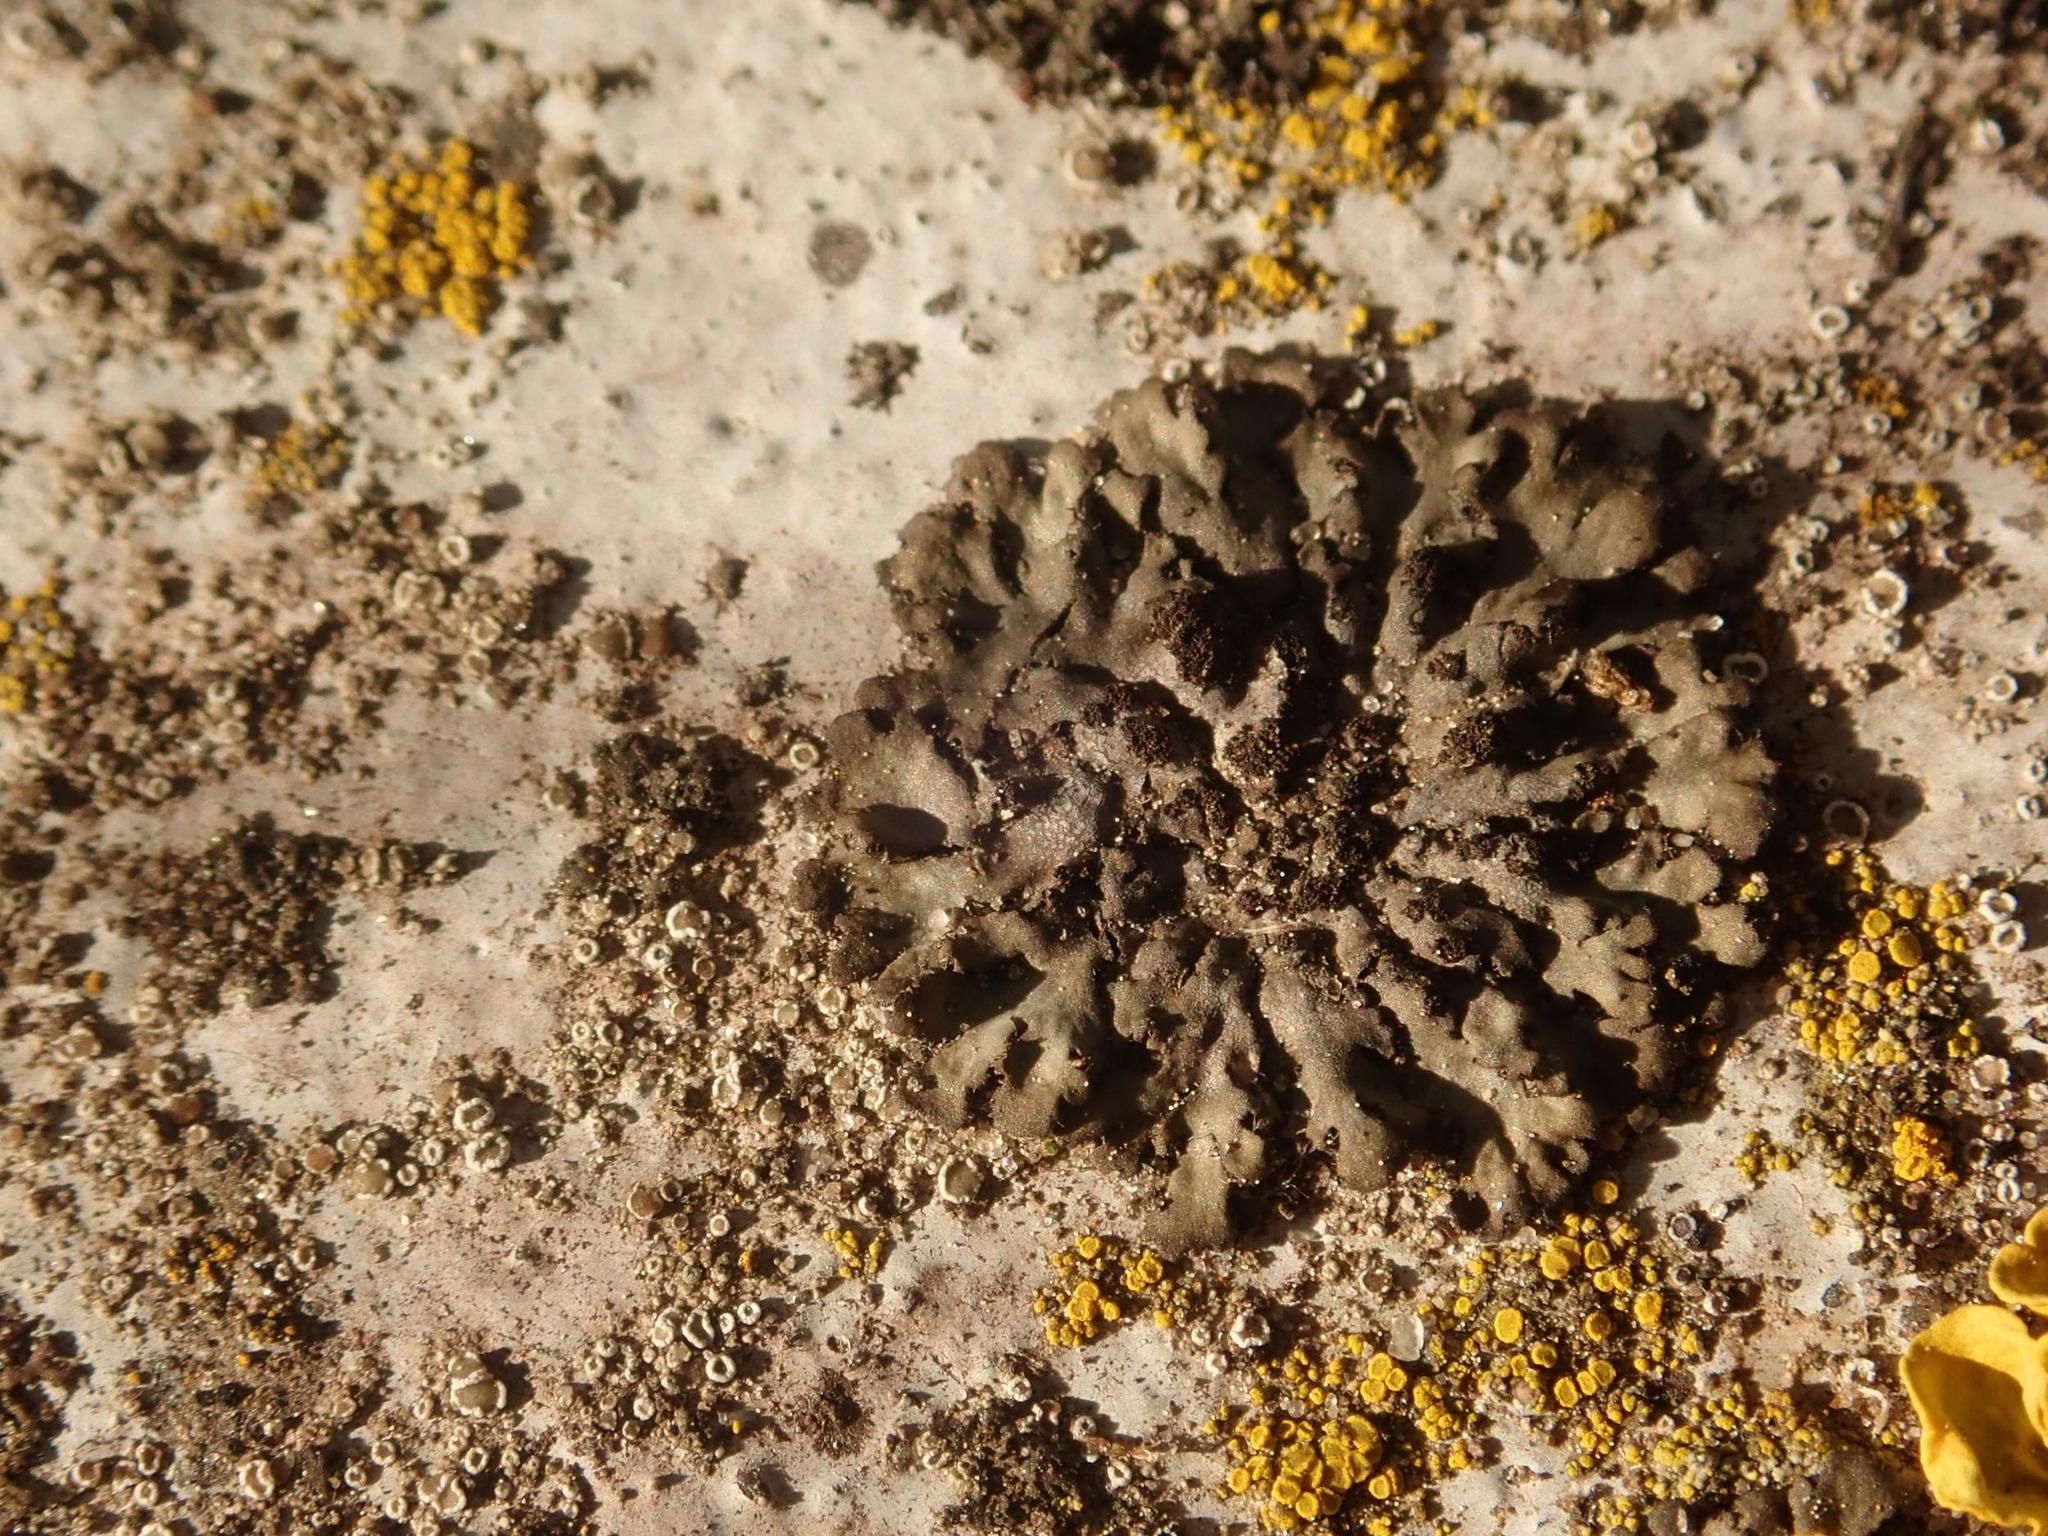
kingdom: Fungi
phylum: Ascomycota
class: Lecanoromycetes
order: Caliciales
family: Physciaceae
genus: Phaeophyscia
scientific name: Phaeophyscia orbicularis
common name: Mealy shadow lichen
